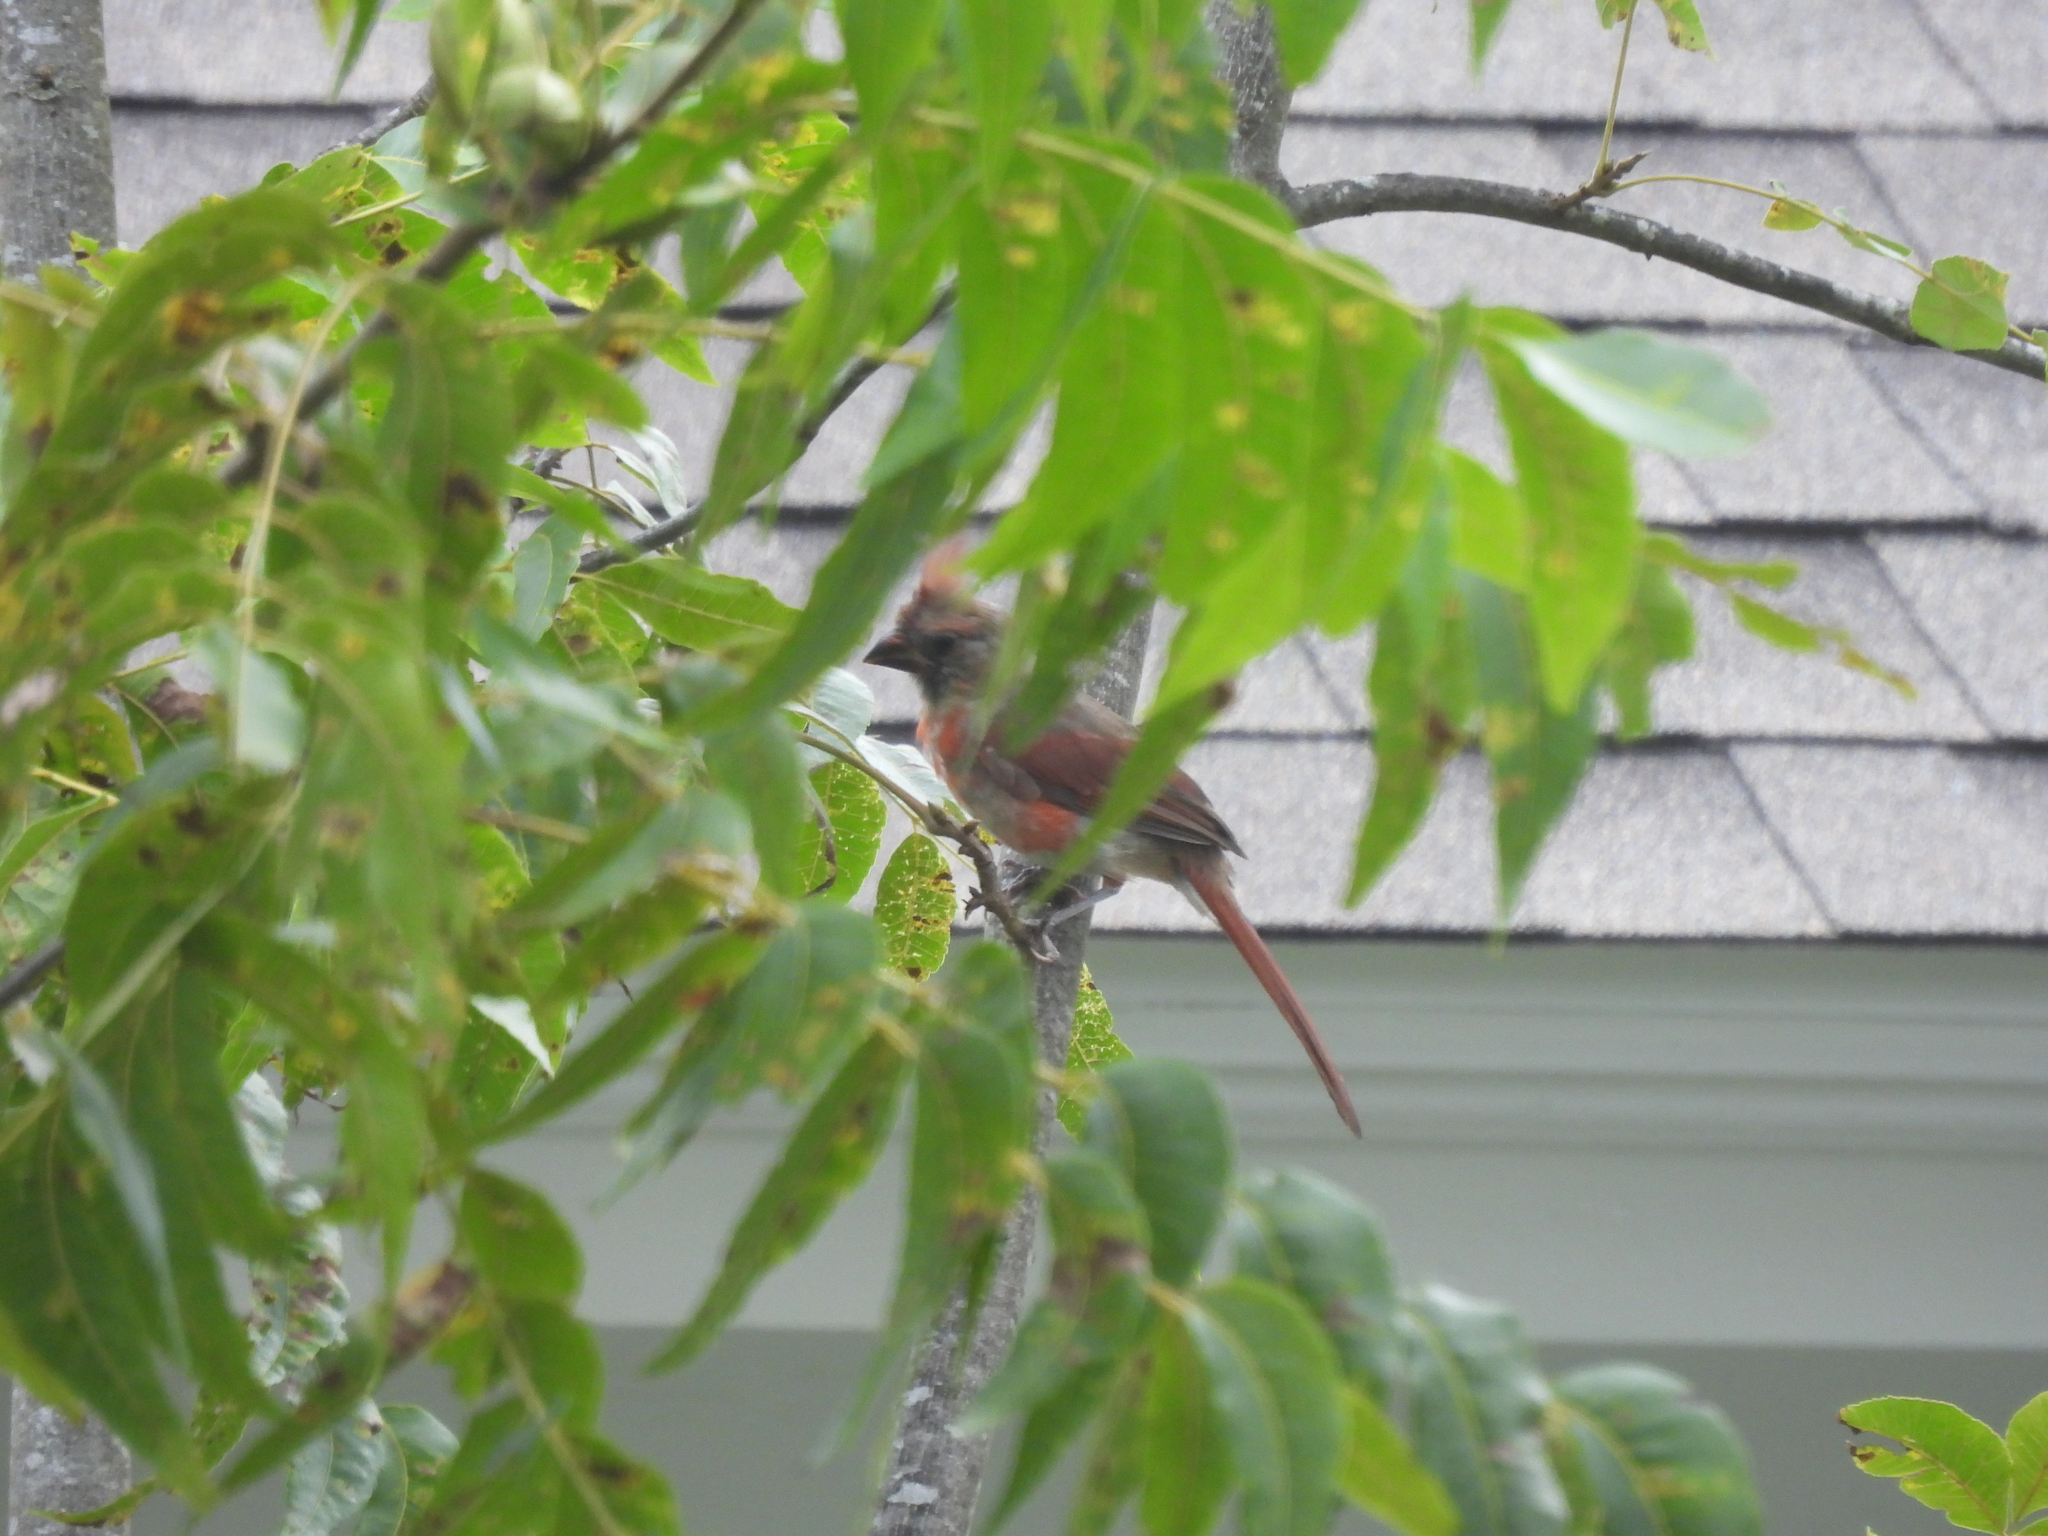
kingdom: Animalia
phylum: Chordata
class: Aves
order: Passeriformes
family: Cardinalidae
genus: Cardinalis
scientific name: Cardinalis cardinalis
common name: Northern cardinal
